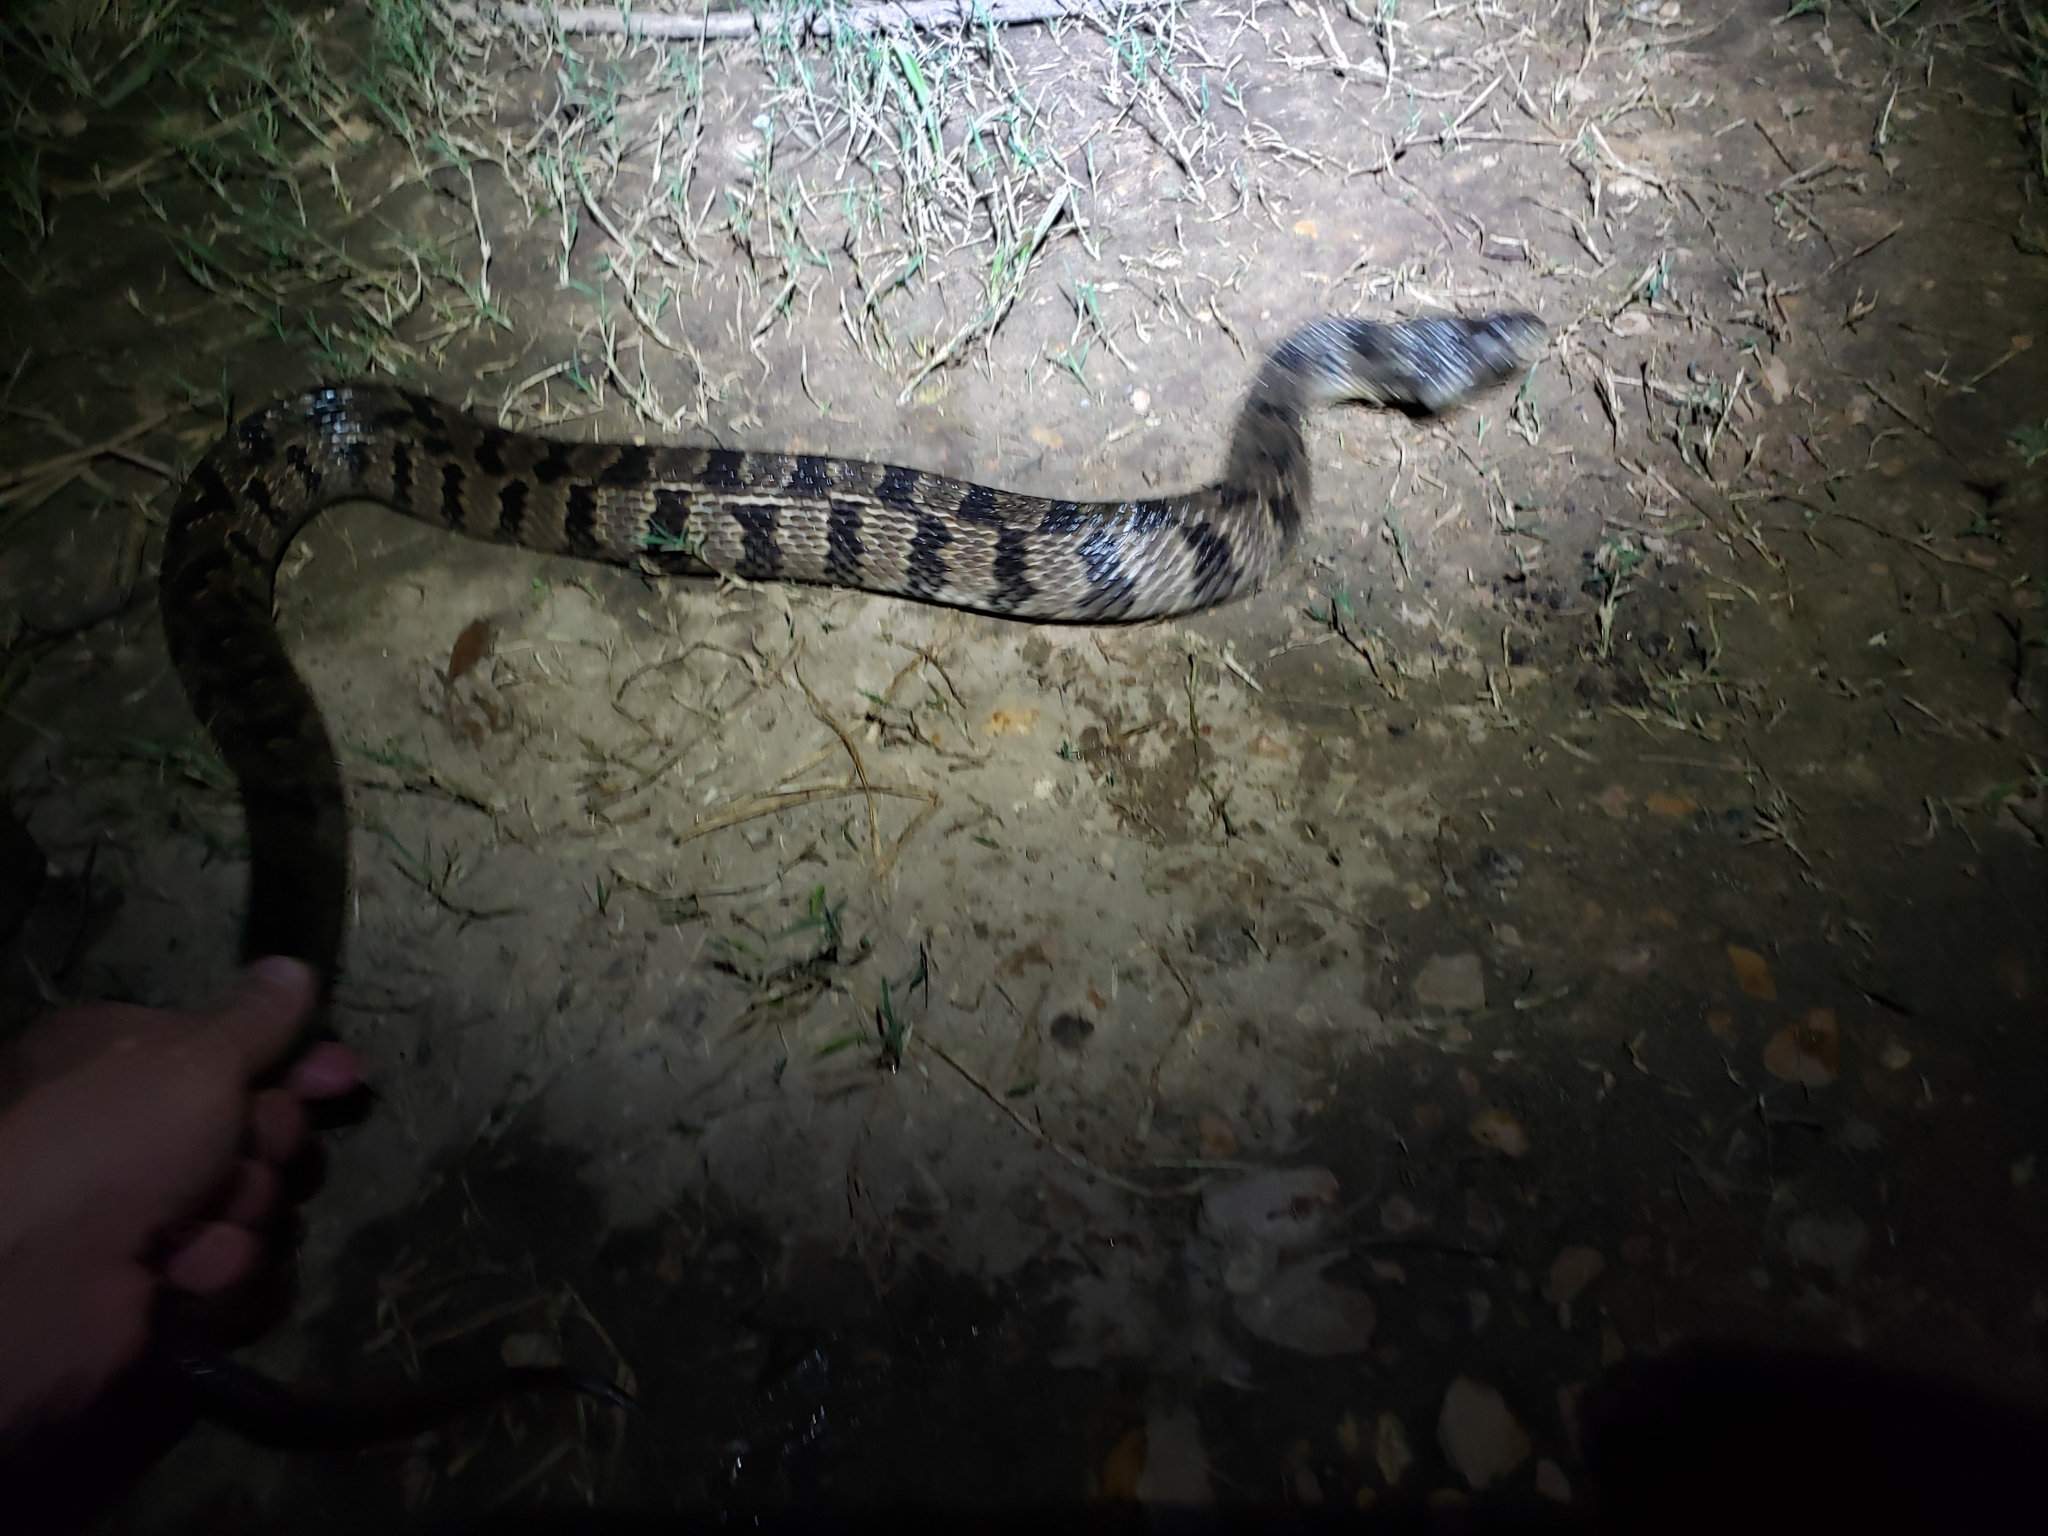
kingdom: Animalia
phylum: Chordata
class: Squamata
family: Colubridae
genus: Nerodia
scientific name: Nerodia rhombifer
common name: Diamondback water snake
